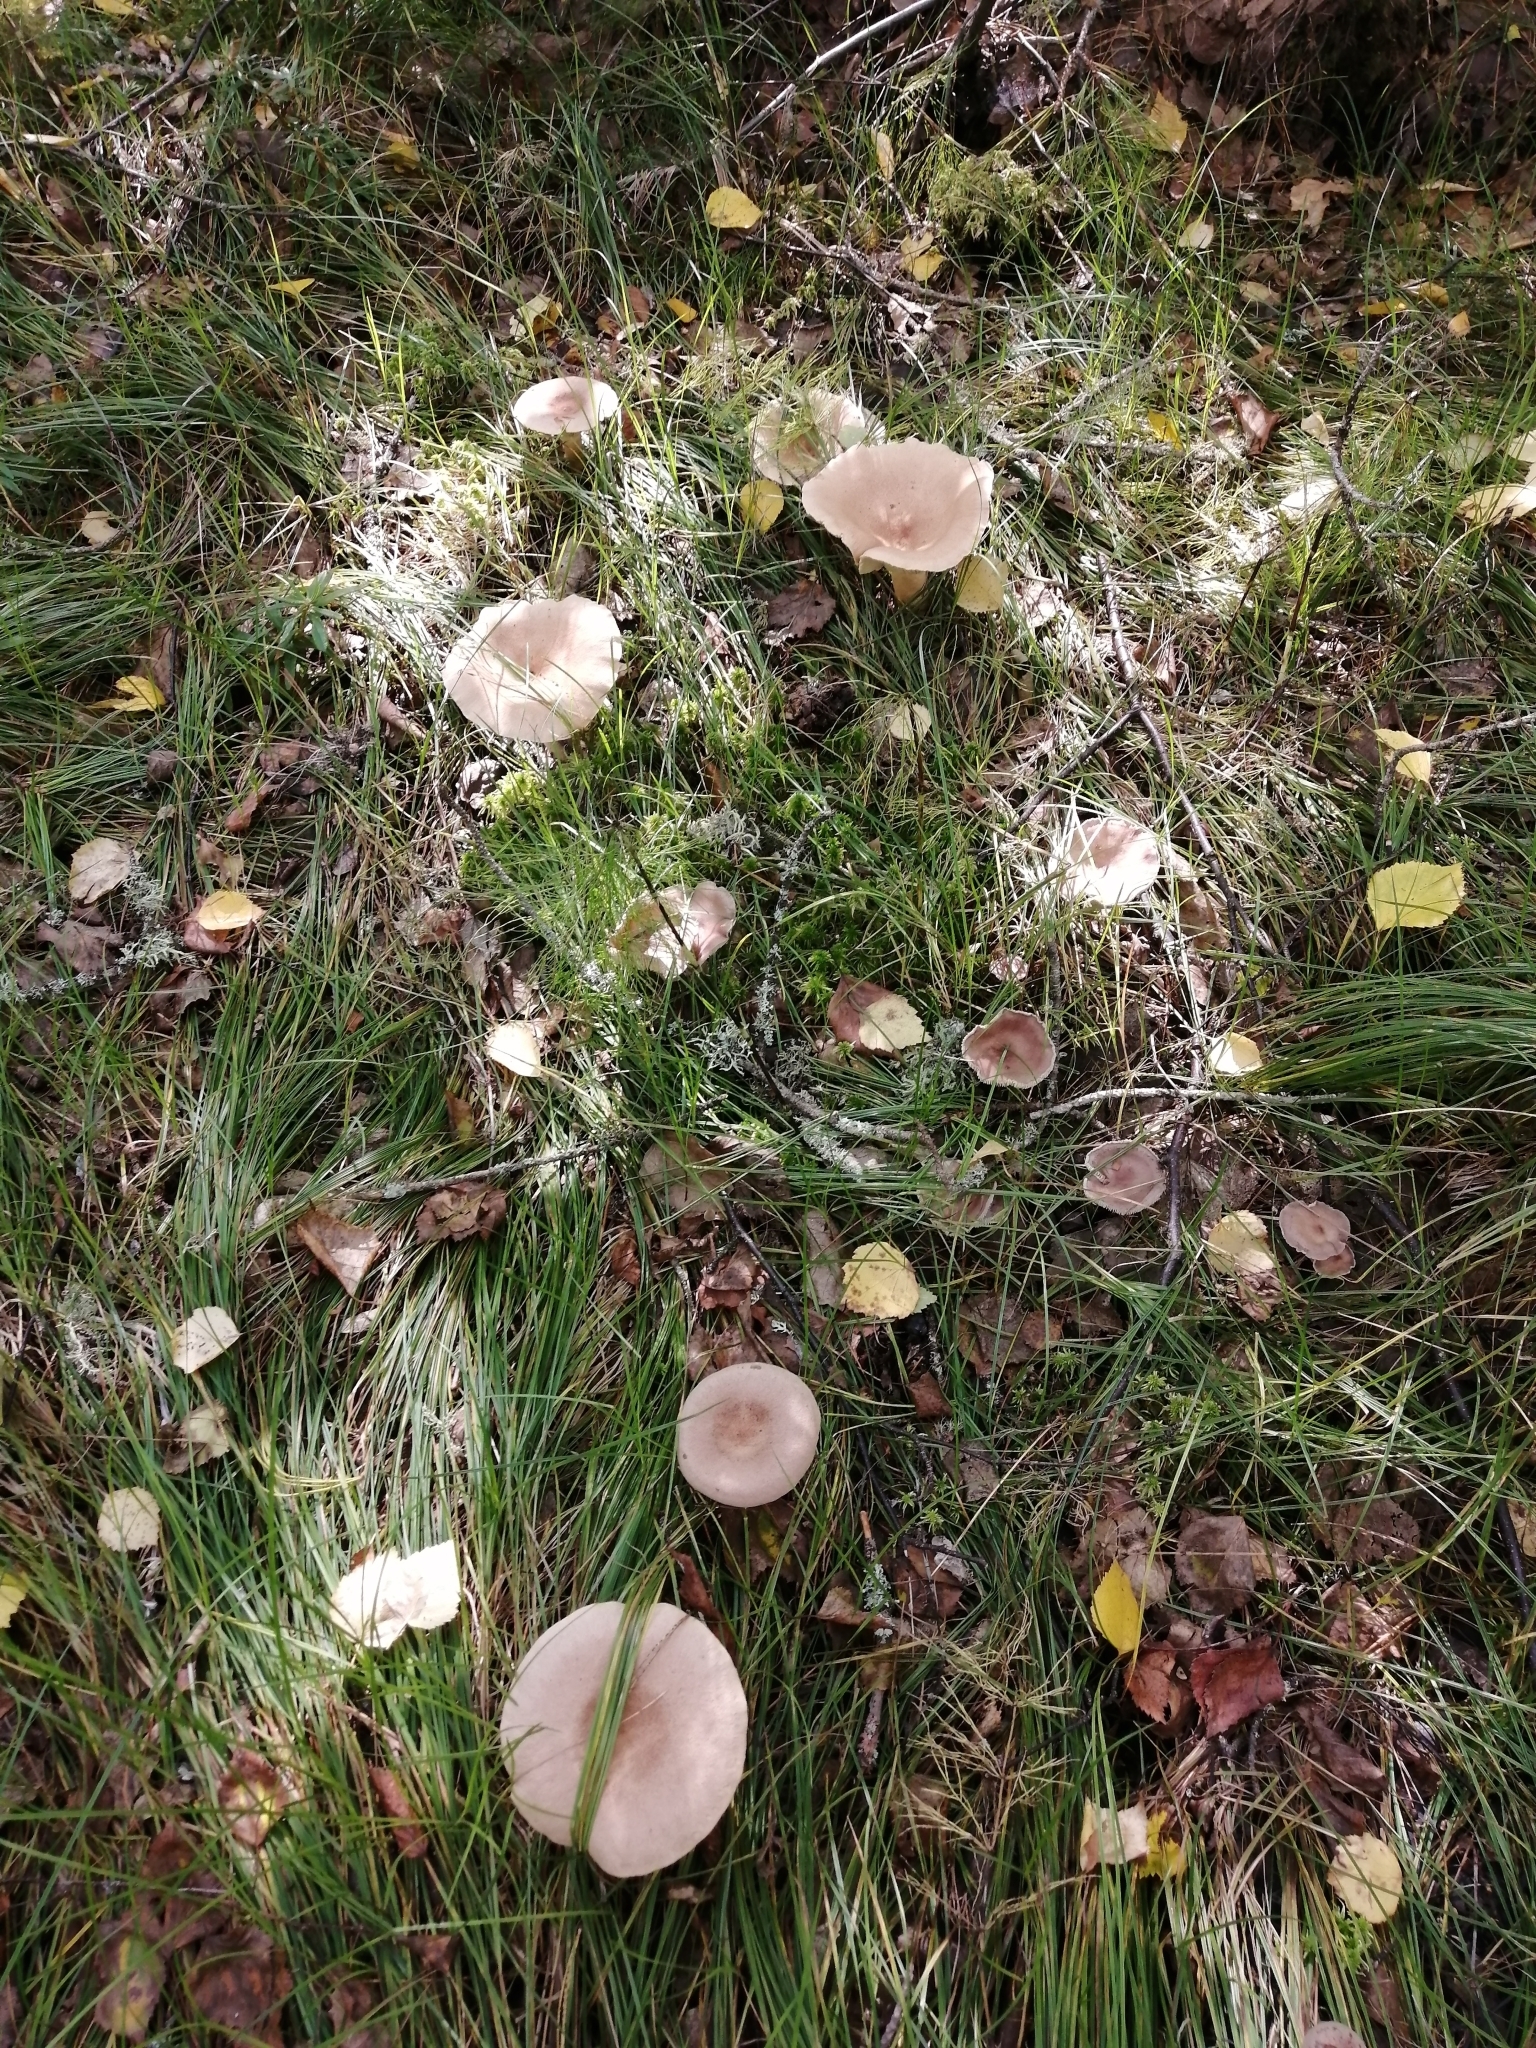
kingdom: Fungi
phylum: Basidiomycota
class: Agaricomycetes
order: Russulales
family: Russulaceae
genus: Lactarius
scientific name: Lactarius helvus
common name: Fenugreek milkcap
